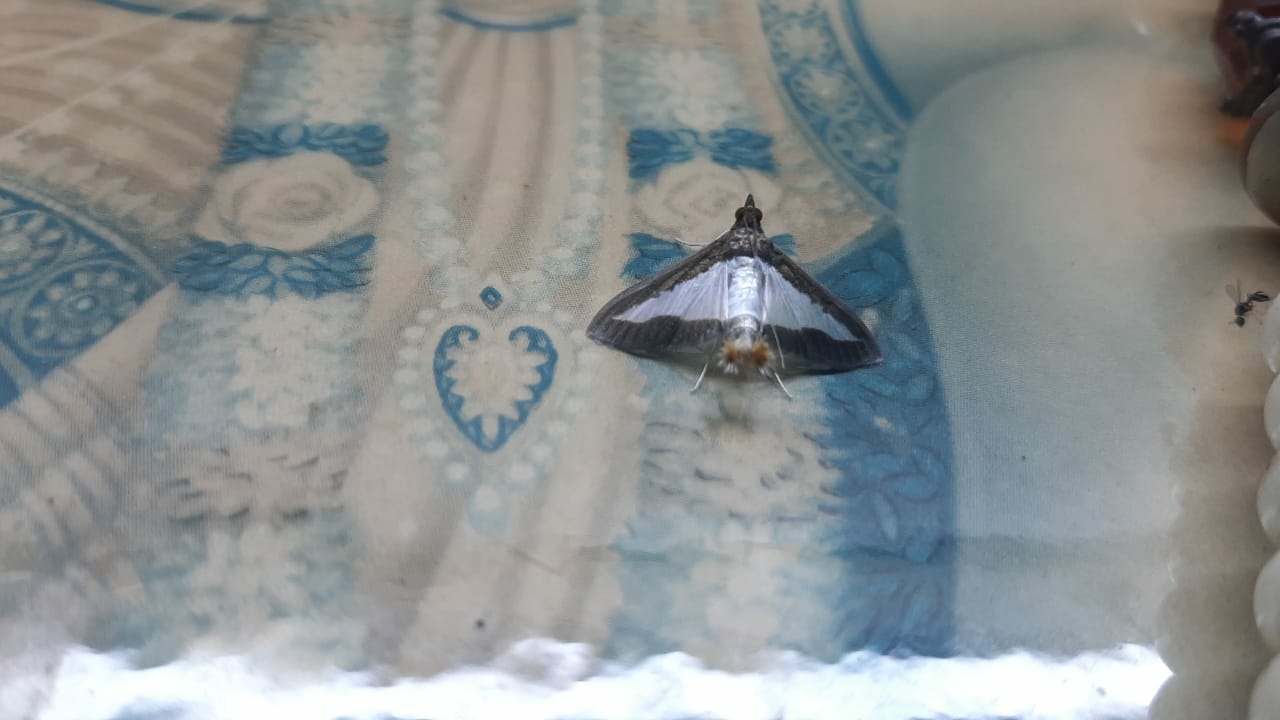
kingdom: Animalia
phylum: Arthropoda
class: Insecta
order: Lepidoptera
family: Crambidae
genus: Diaphania
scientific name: Diaphania indica
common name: Cucumber moth
